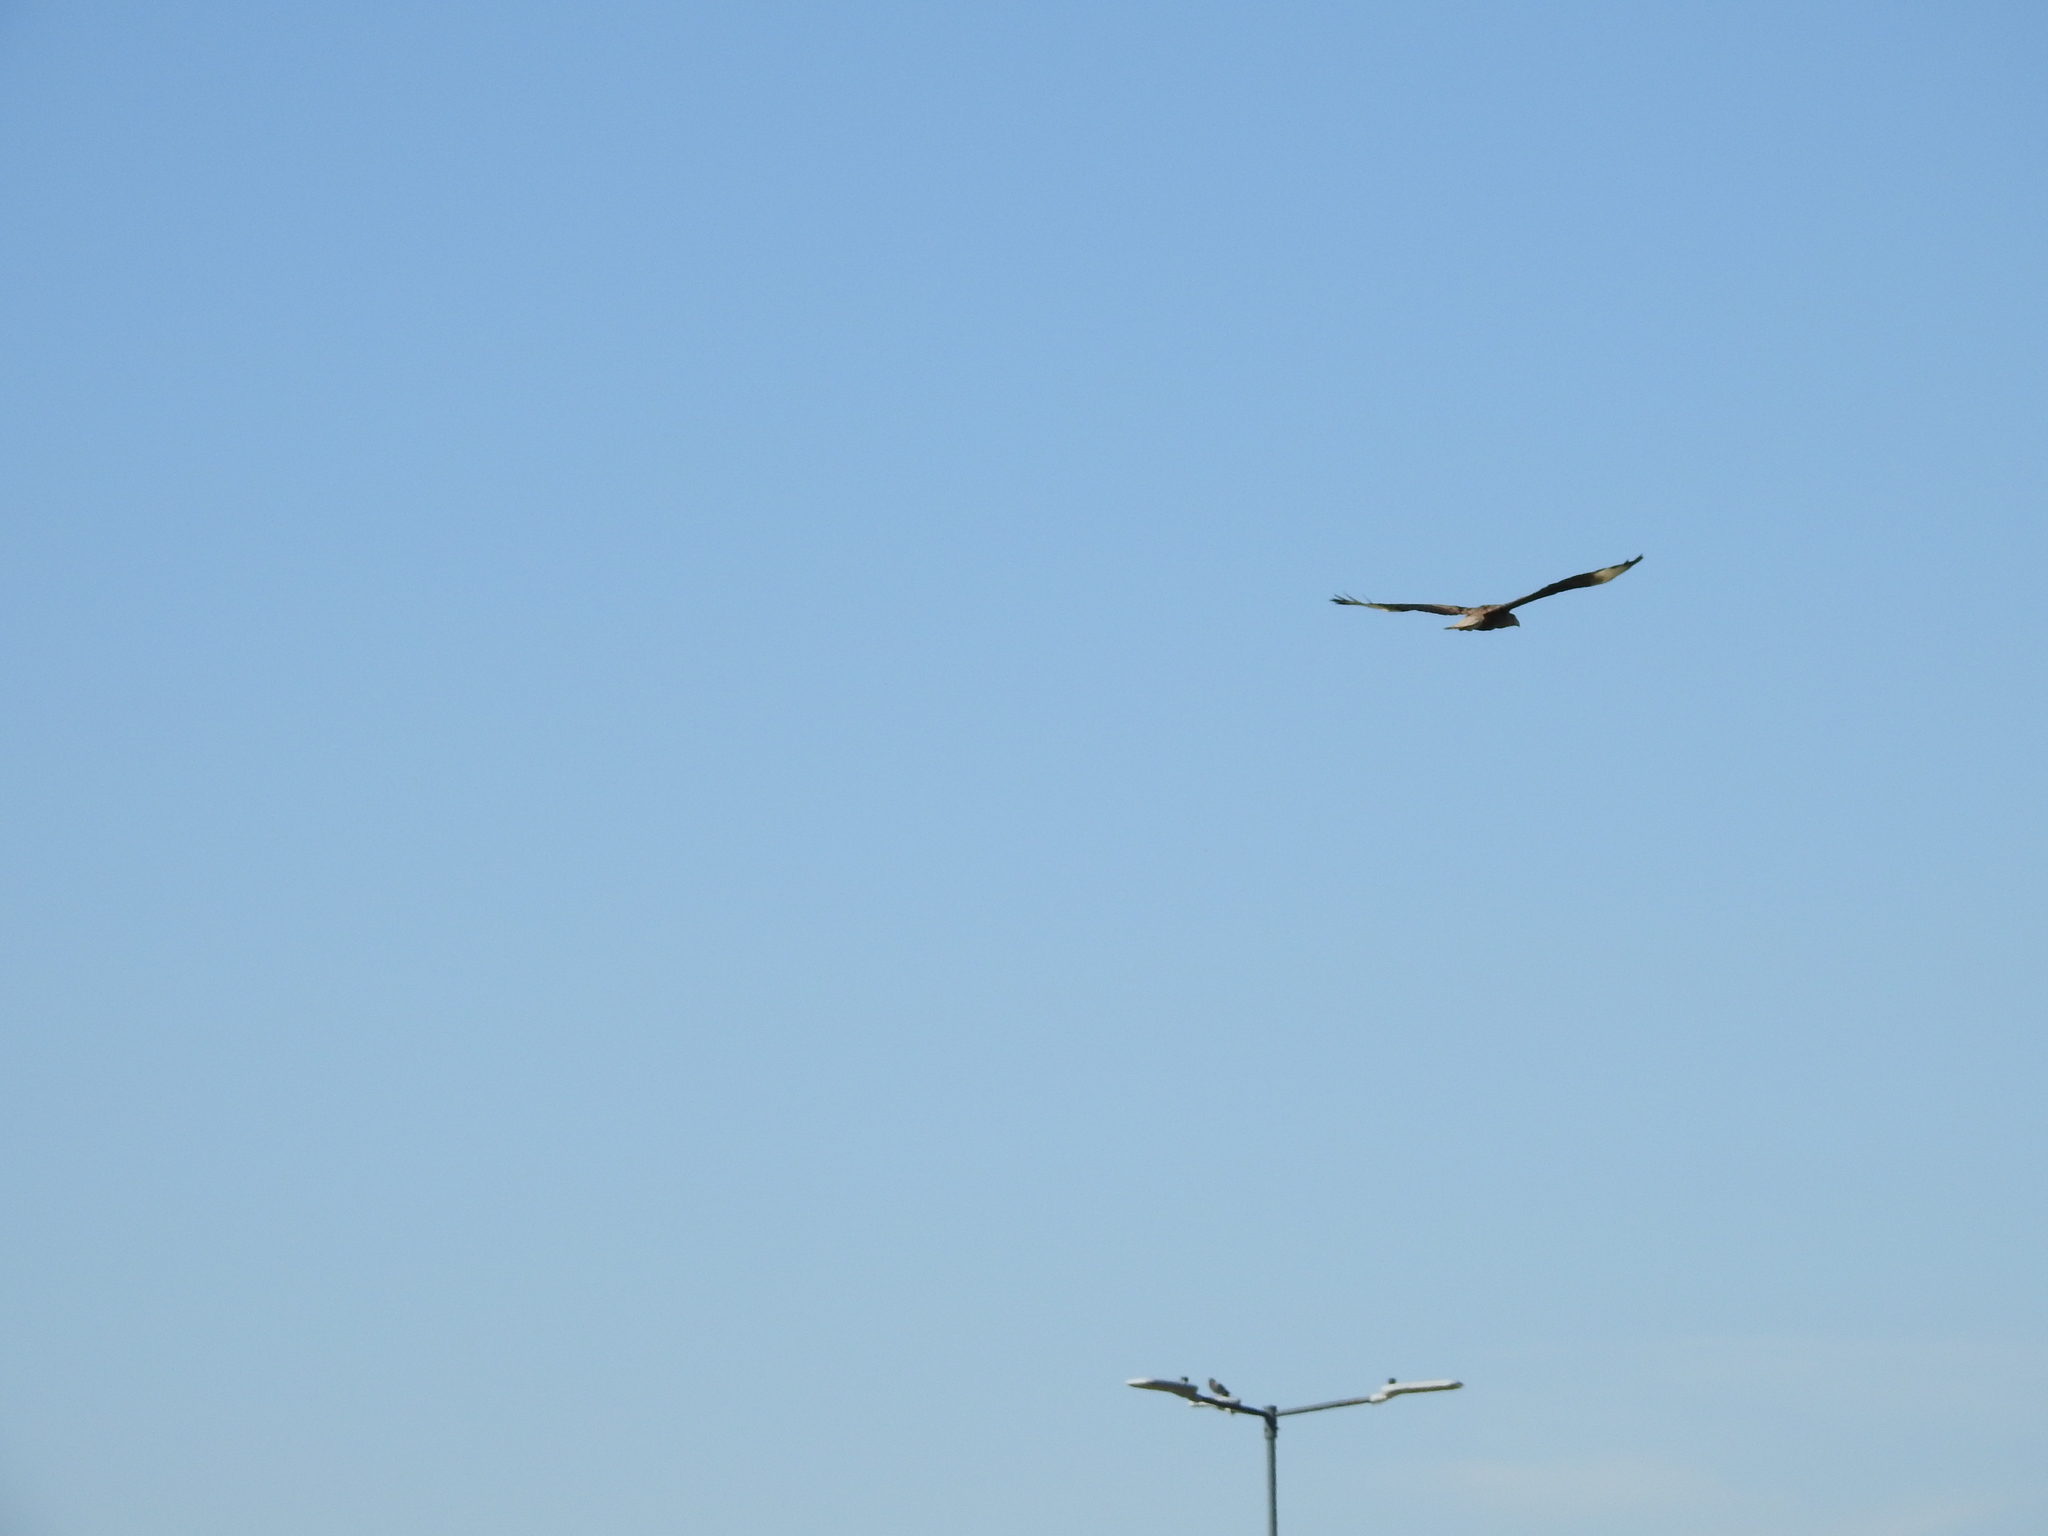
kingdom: Animalia
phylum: Chordata
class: Aves
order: Falconiformes
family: Falconidae
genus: Caracara
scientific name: Caracara plancus
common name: Southern caracara
